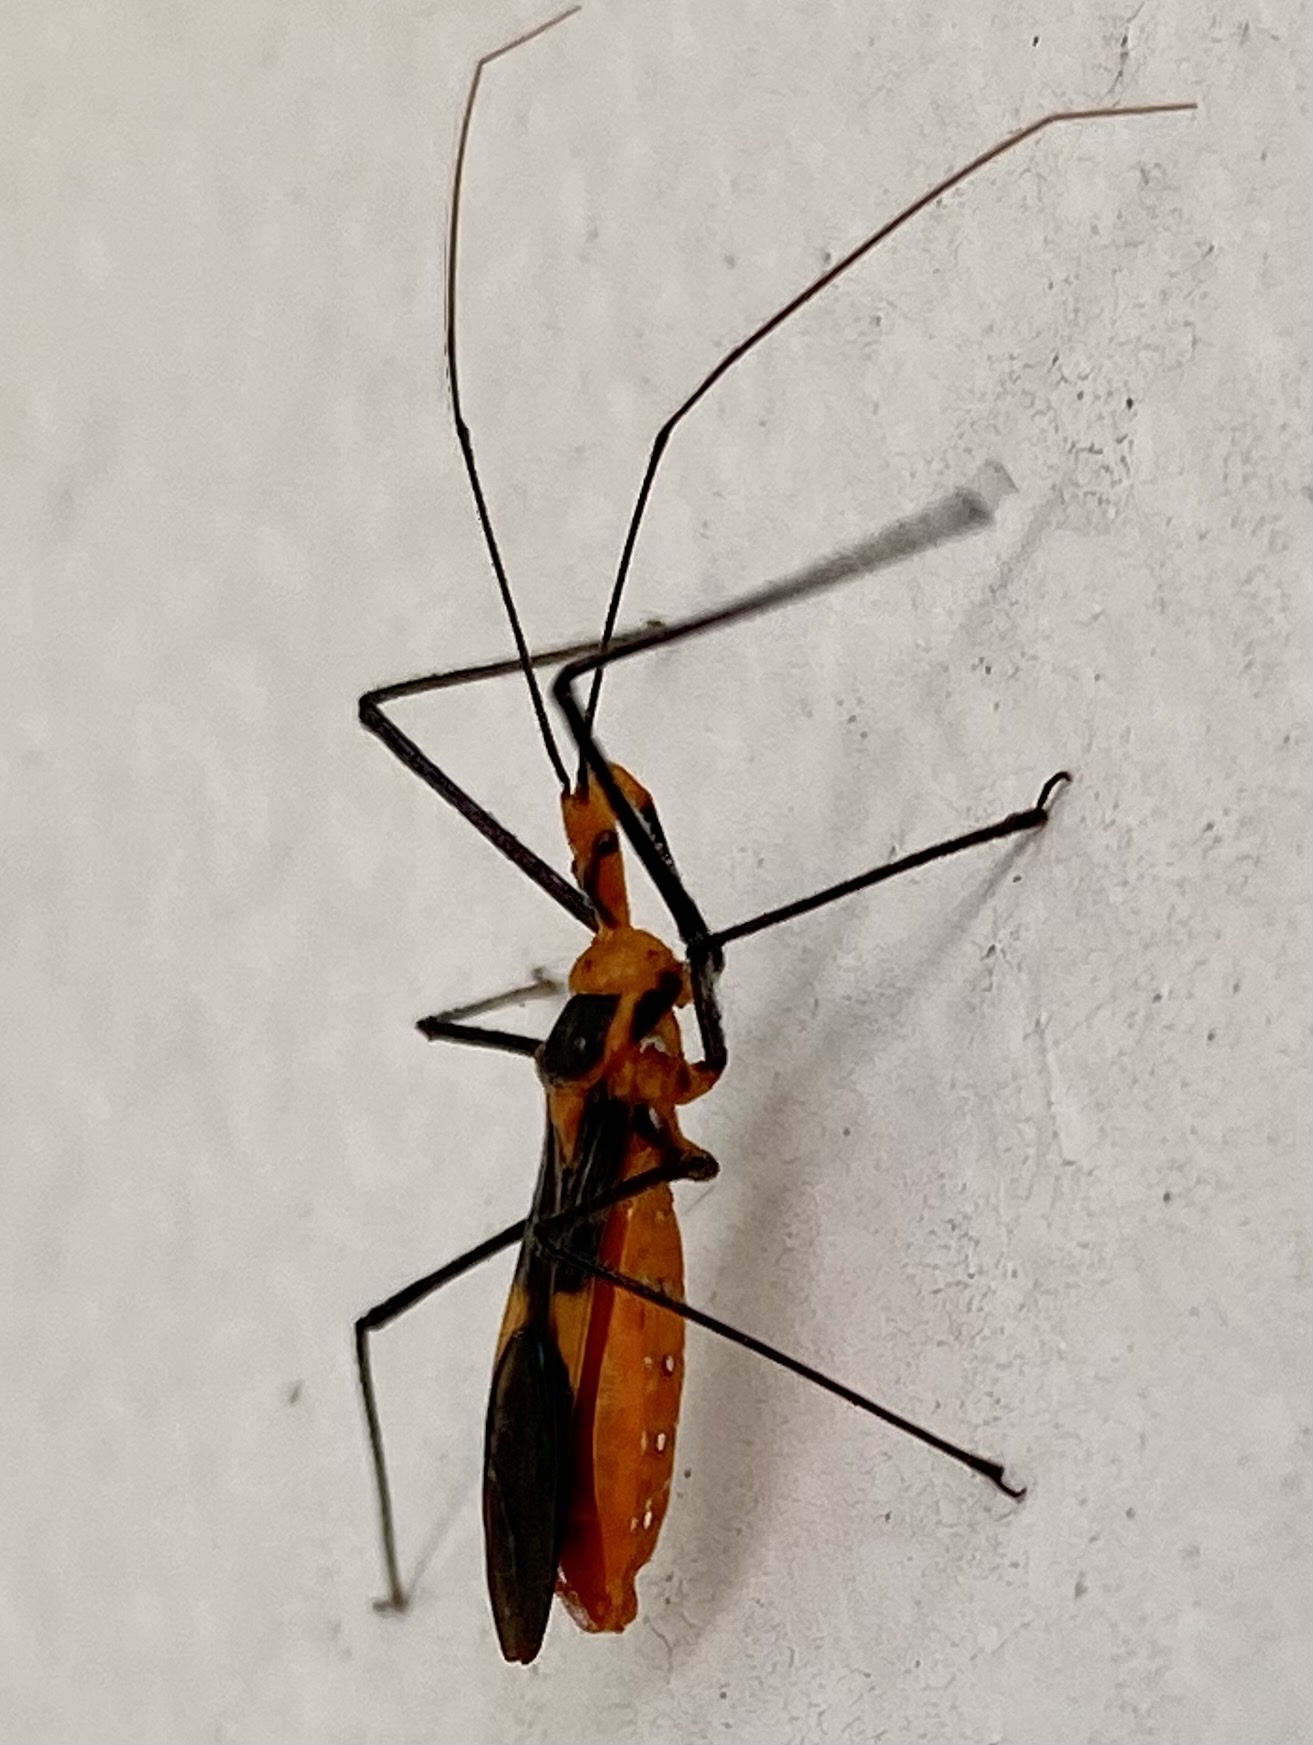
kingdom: Animalia
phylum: Arthropoda
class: Insecta
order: Hemiptera
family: Reduviidae
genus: Zelus
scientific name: Zelus longipes
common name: Milkweed assassin bug
